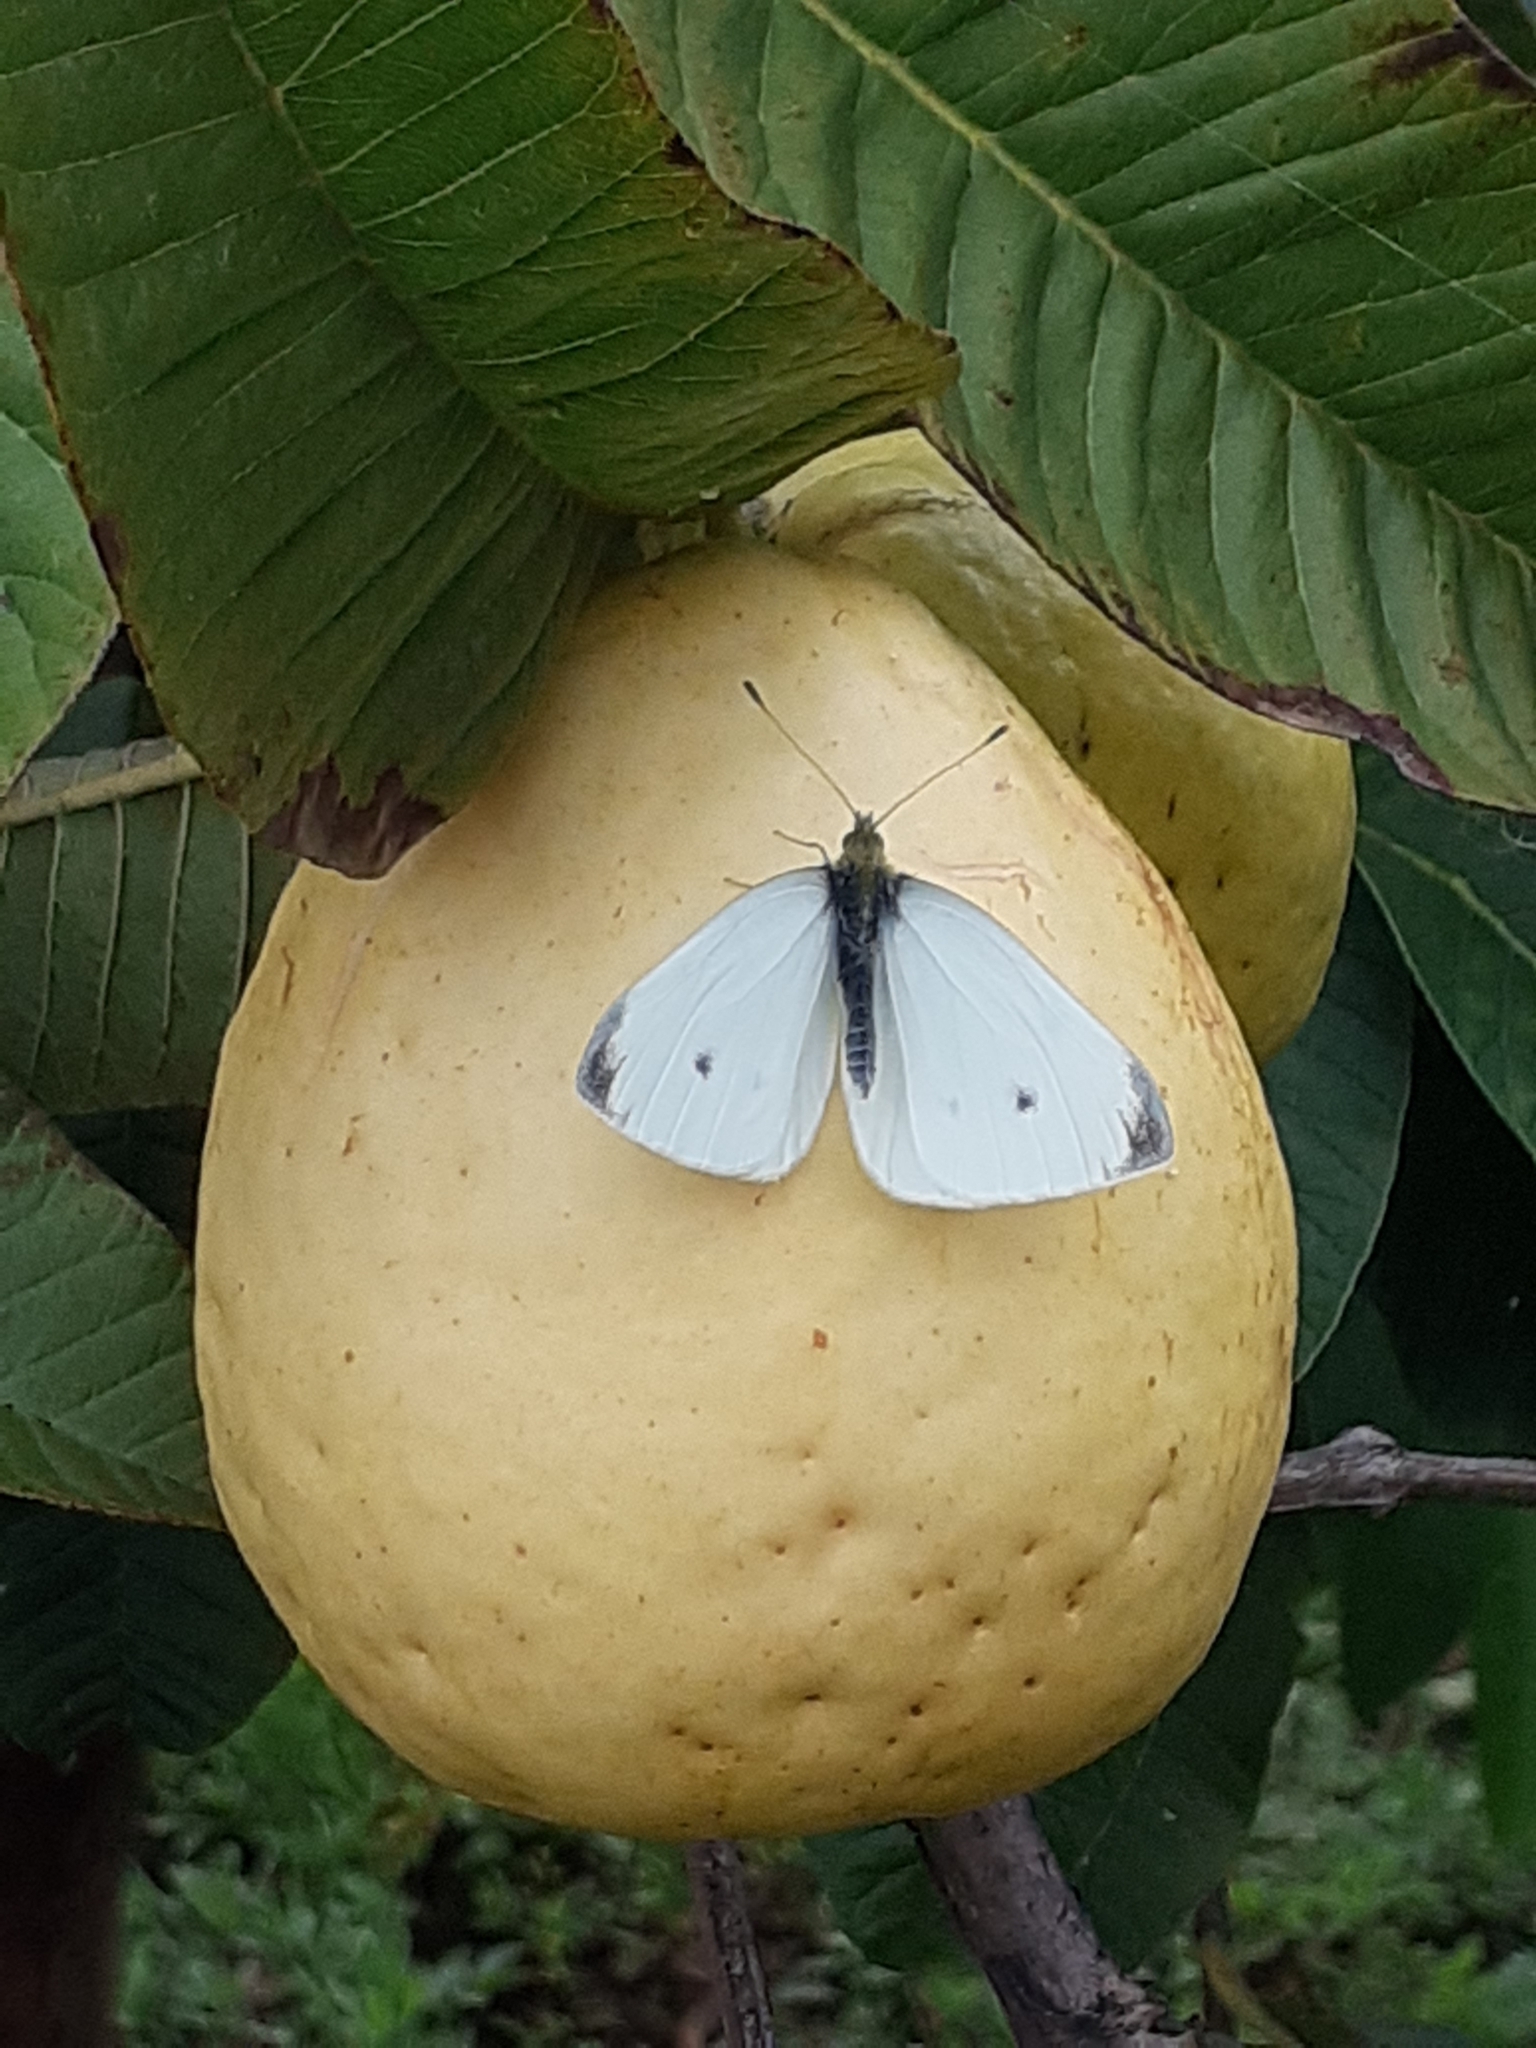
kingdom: Animalia
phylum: Arthropoda
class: Insecta
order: Lepidoptera
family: Pieridae
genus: Pieris
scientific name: Pieris rapae
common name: Small white
